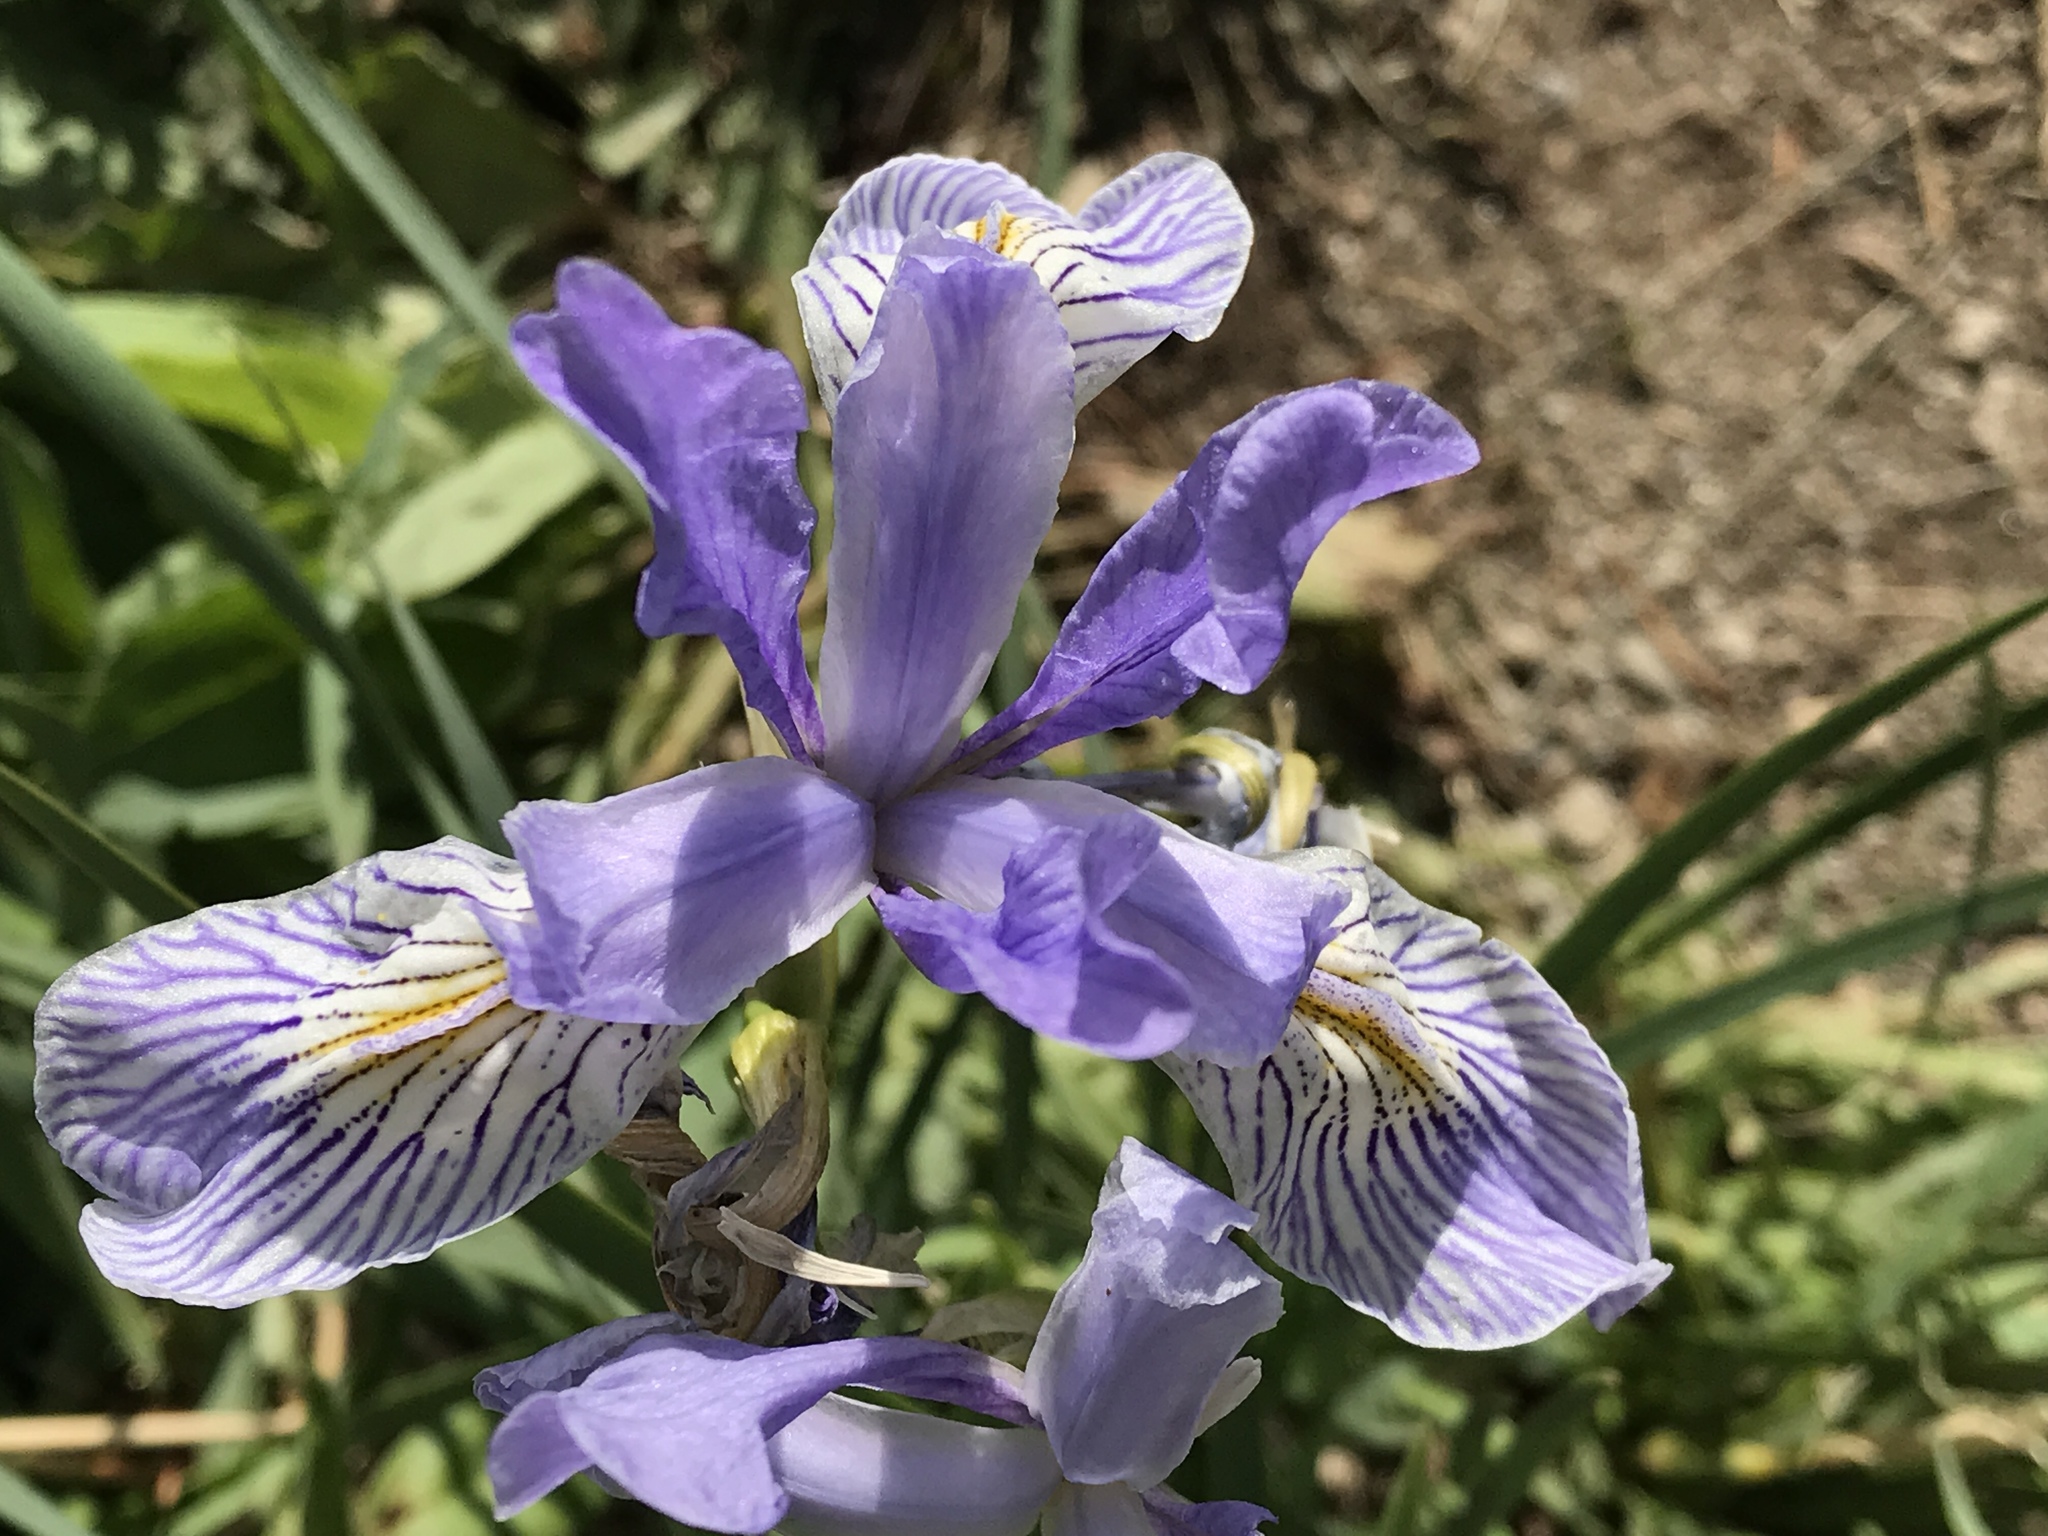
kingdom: Plantae
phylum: Tracheophyta
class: Liliopsida
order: Asparagales
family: Iridaceae
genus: Iris
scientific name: Iris missouriensis
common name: Rocky mountain iris
